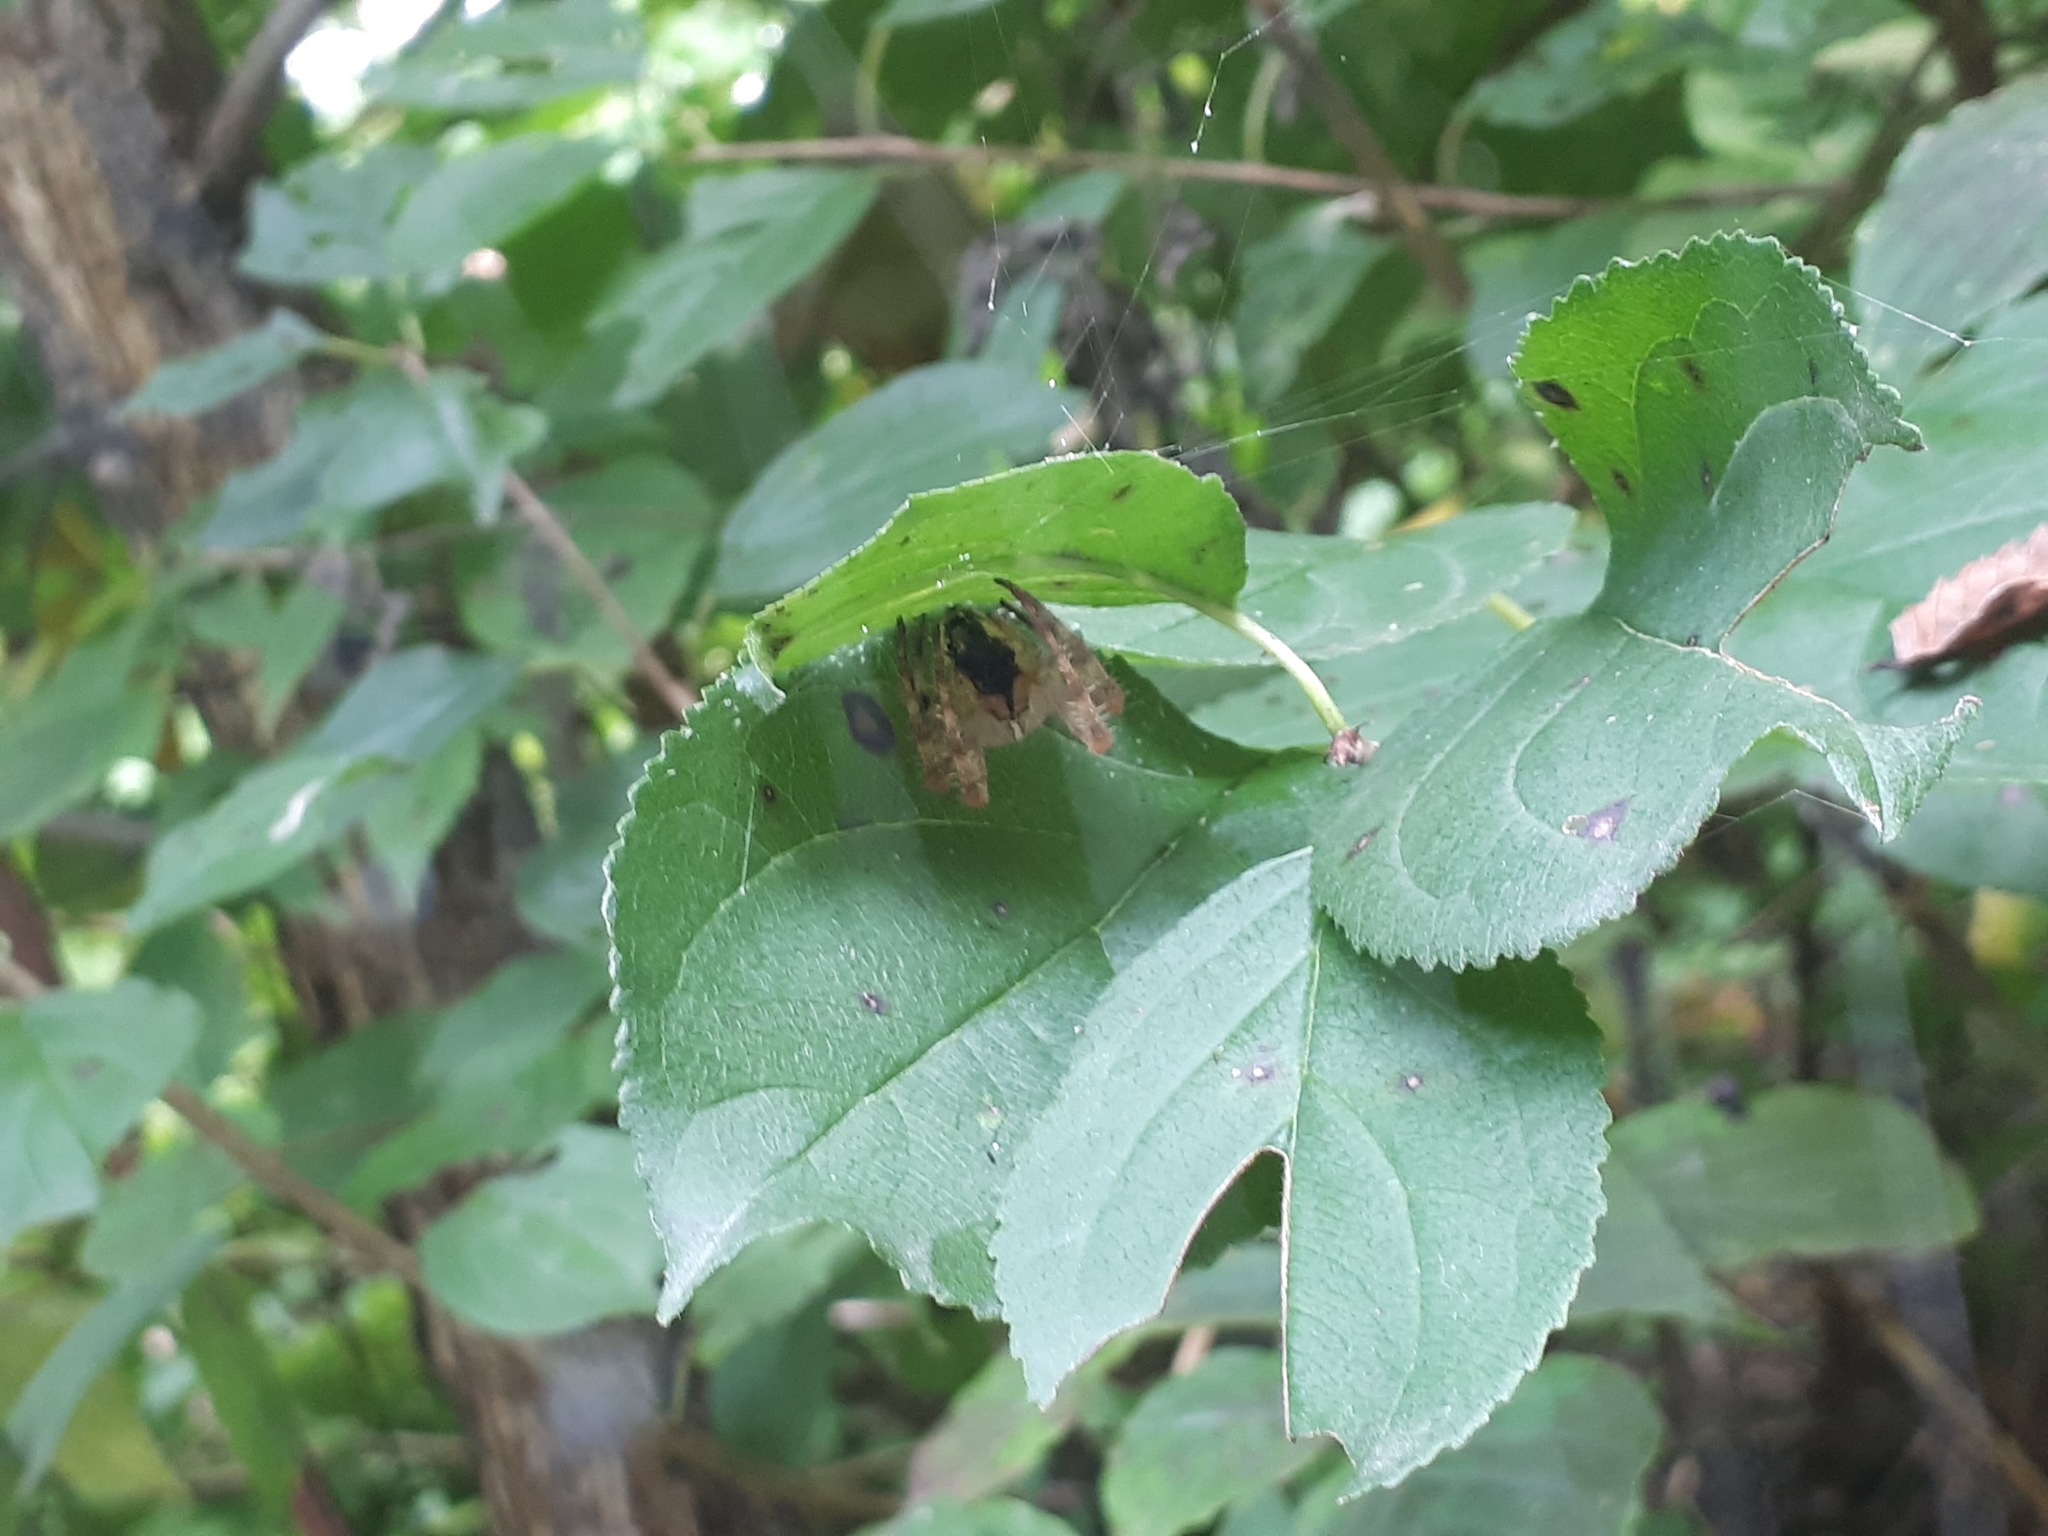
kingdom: Animalia
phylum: Arthropoda
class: Arachnida
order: Araneae
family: Araneidae
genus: Araneus
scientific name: Araneus diadematus
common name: Cross orbweaver
